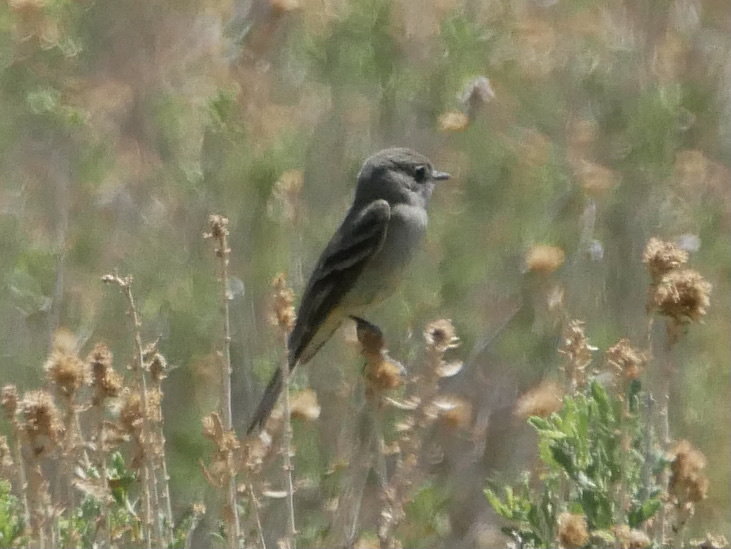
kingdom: Animalia
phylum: Chordata
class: Aves
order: Passeriformes
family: Tyrannidae
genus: Empidonax
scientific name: Empidonax
